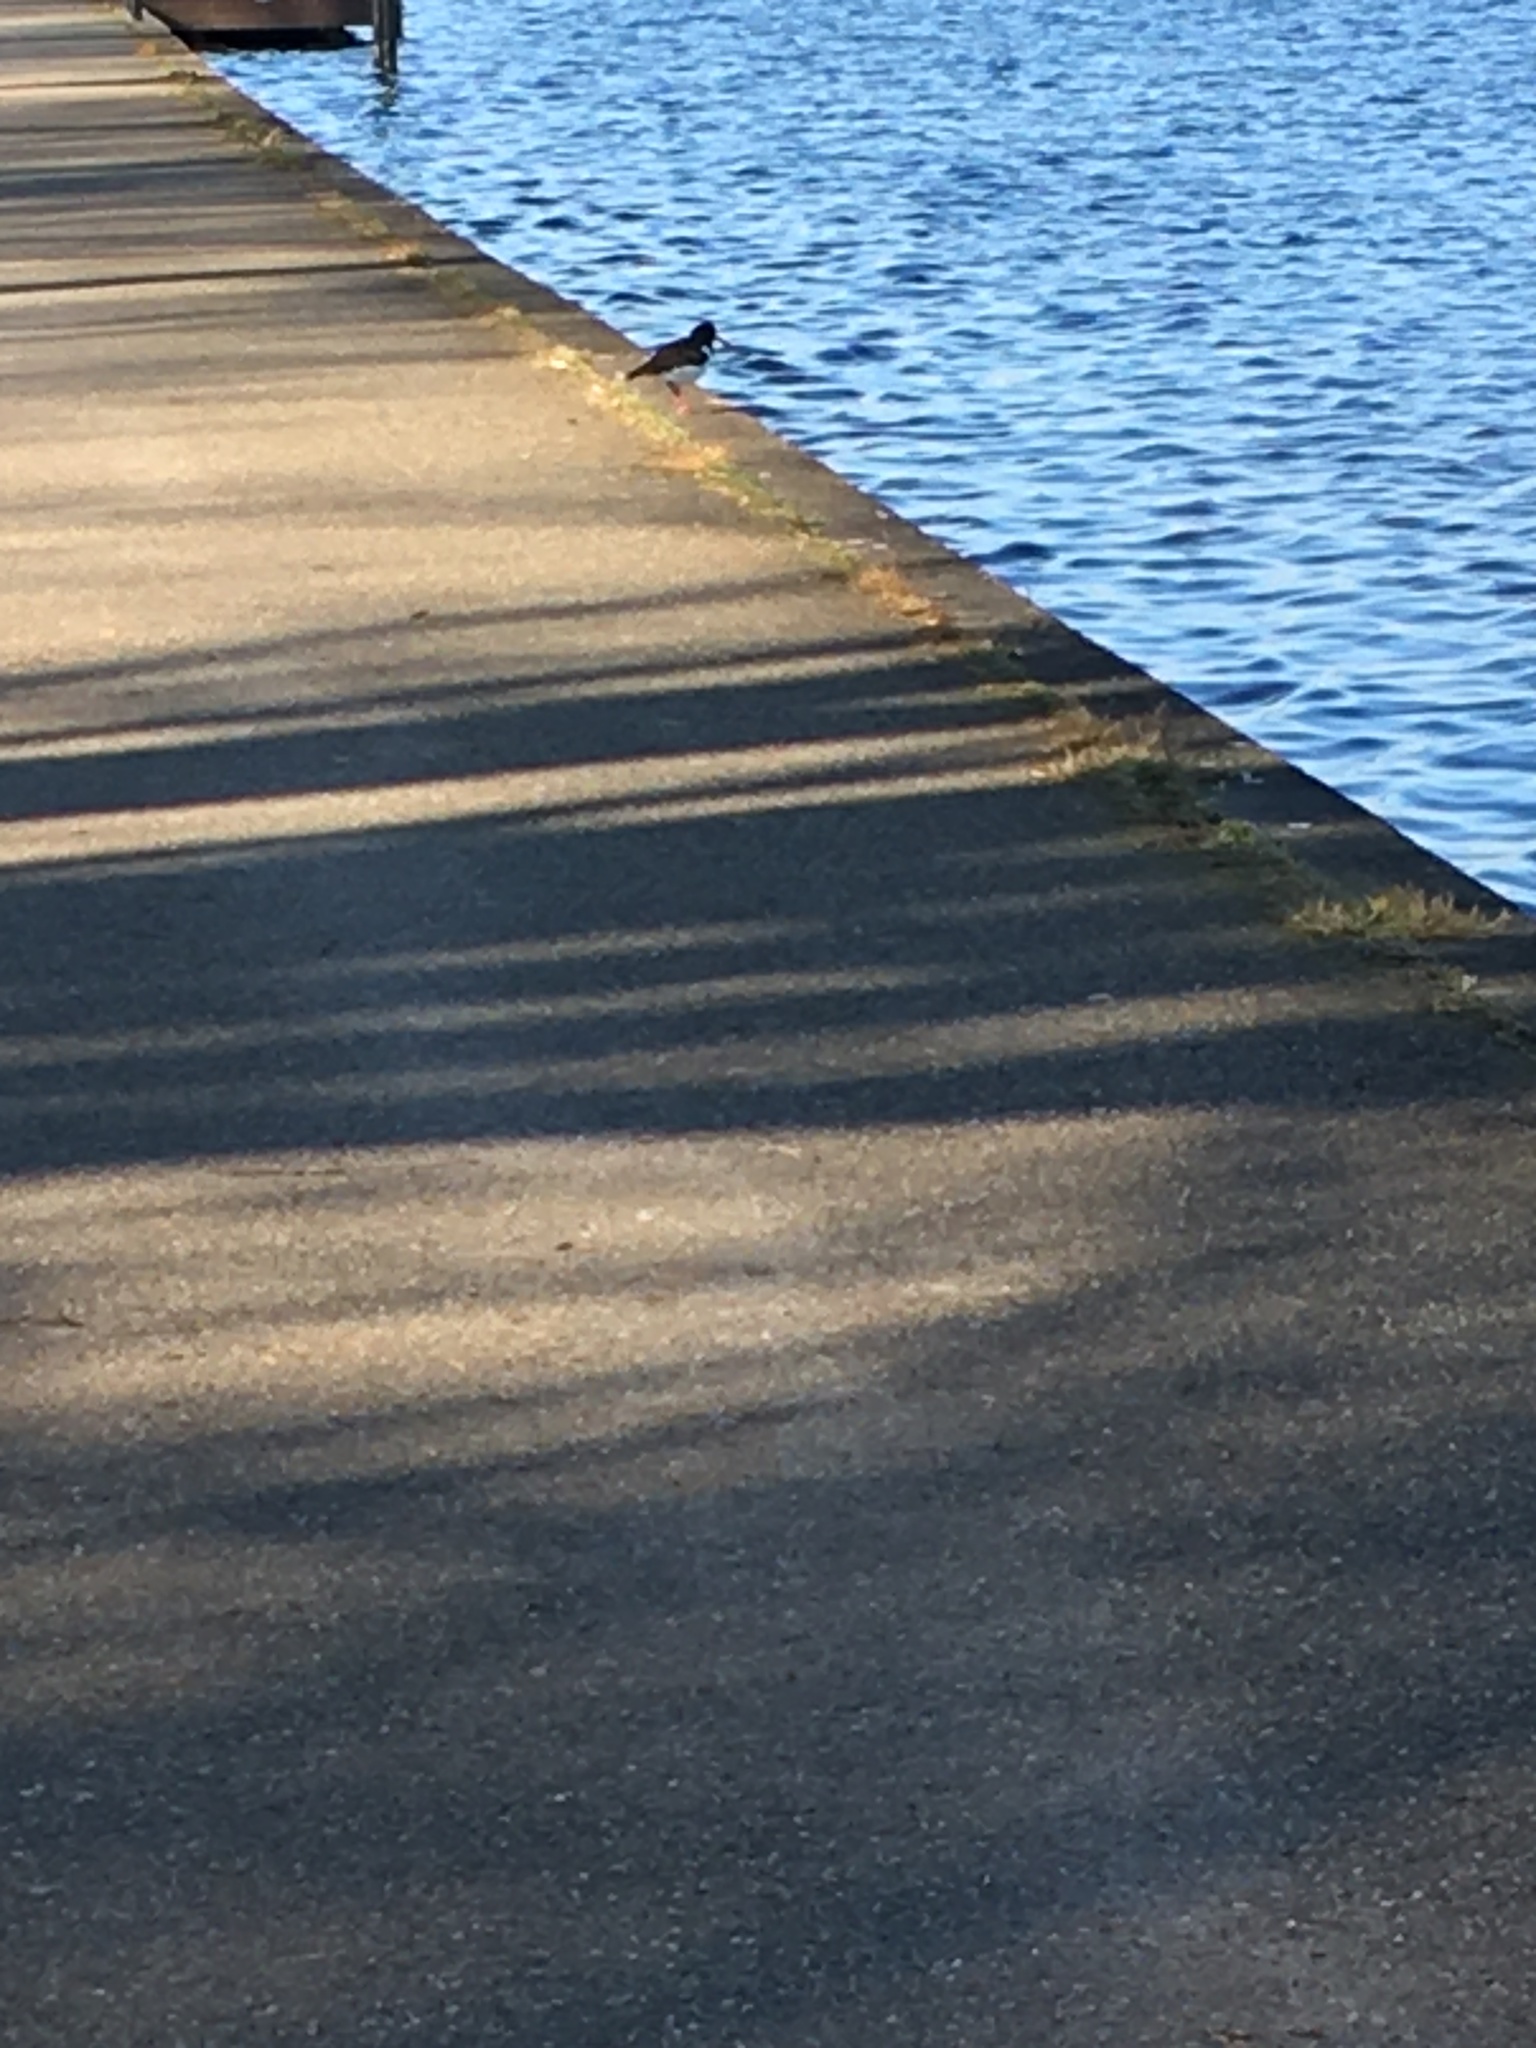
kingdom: Animalia
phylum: Chordata
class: Aves
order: Charadriiformes
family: Haematopodidae
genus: Haematopus
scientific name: Haematopus ostralegus
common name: Eurasian oystercatcher
